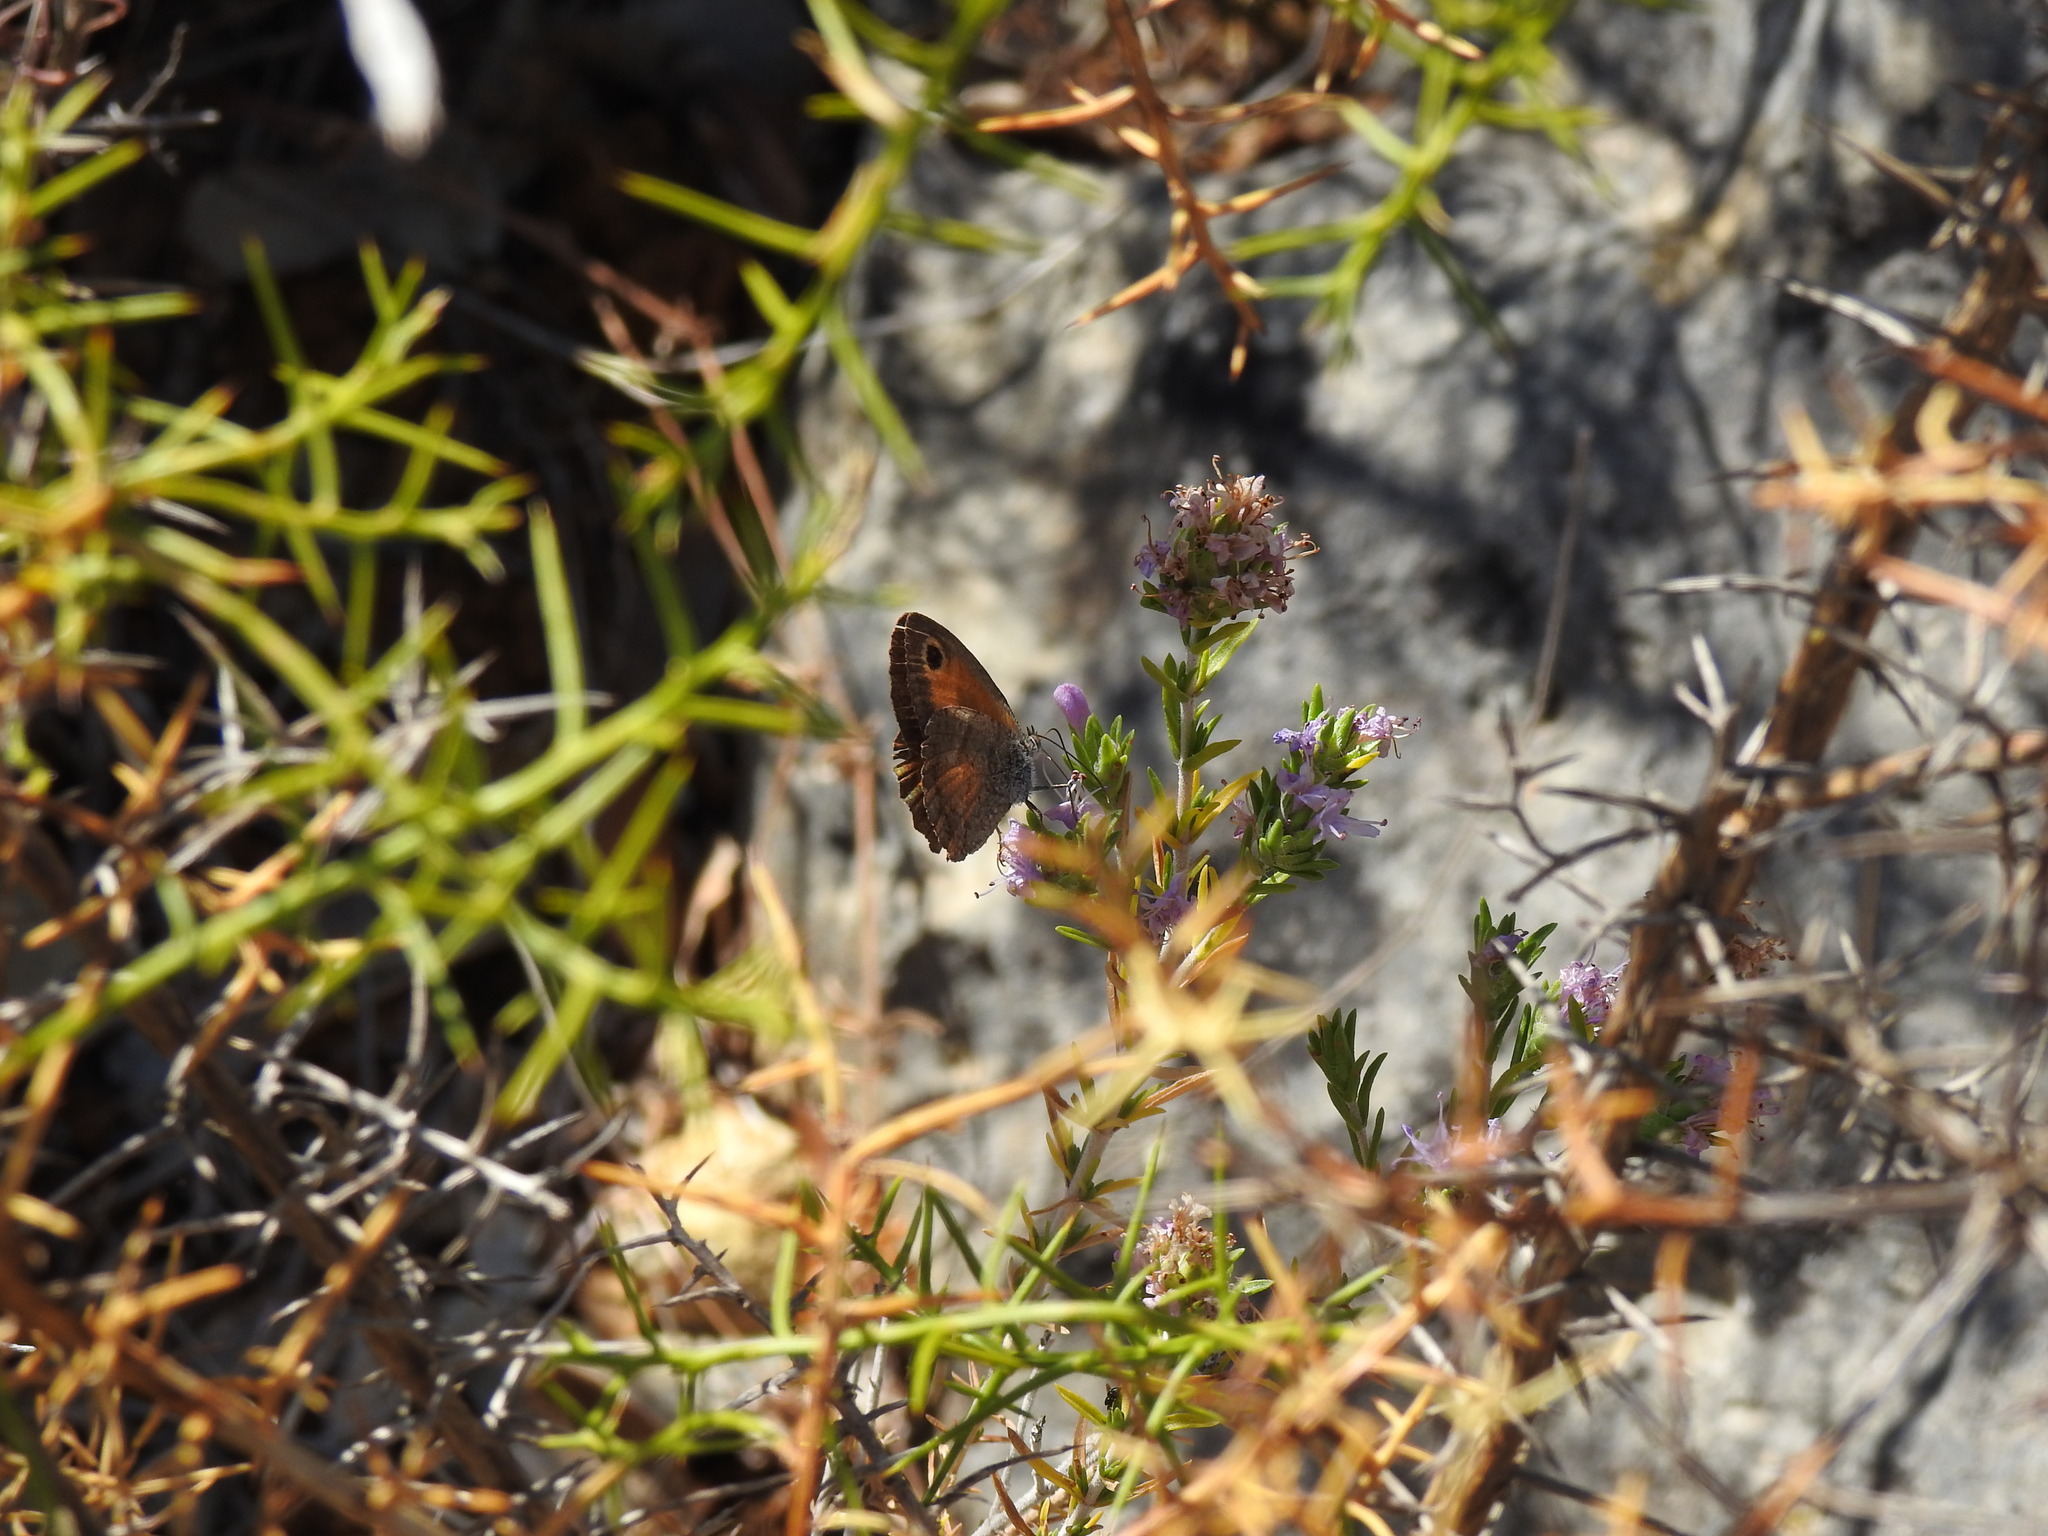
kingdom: Animalia
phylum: Arthropoda
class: Insecta
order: Lepidoptera
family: Nymphalidae
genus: Pyronia
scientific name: Pyronia cecilia
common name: Southern gatekeeper
